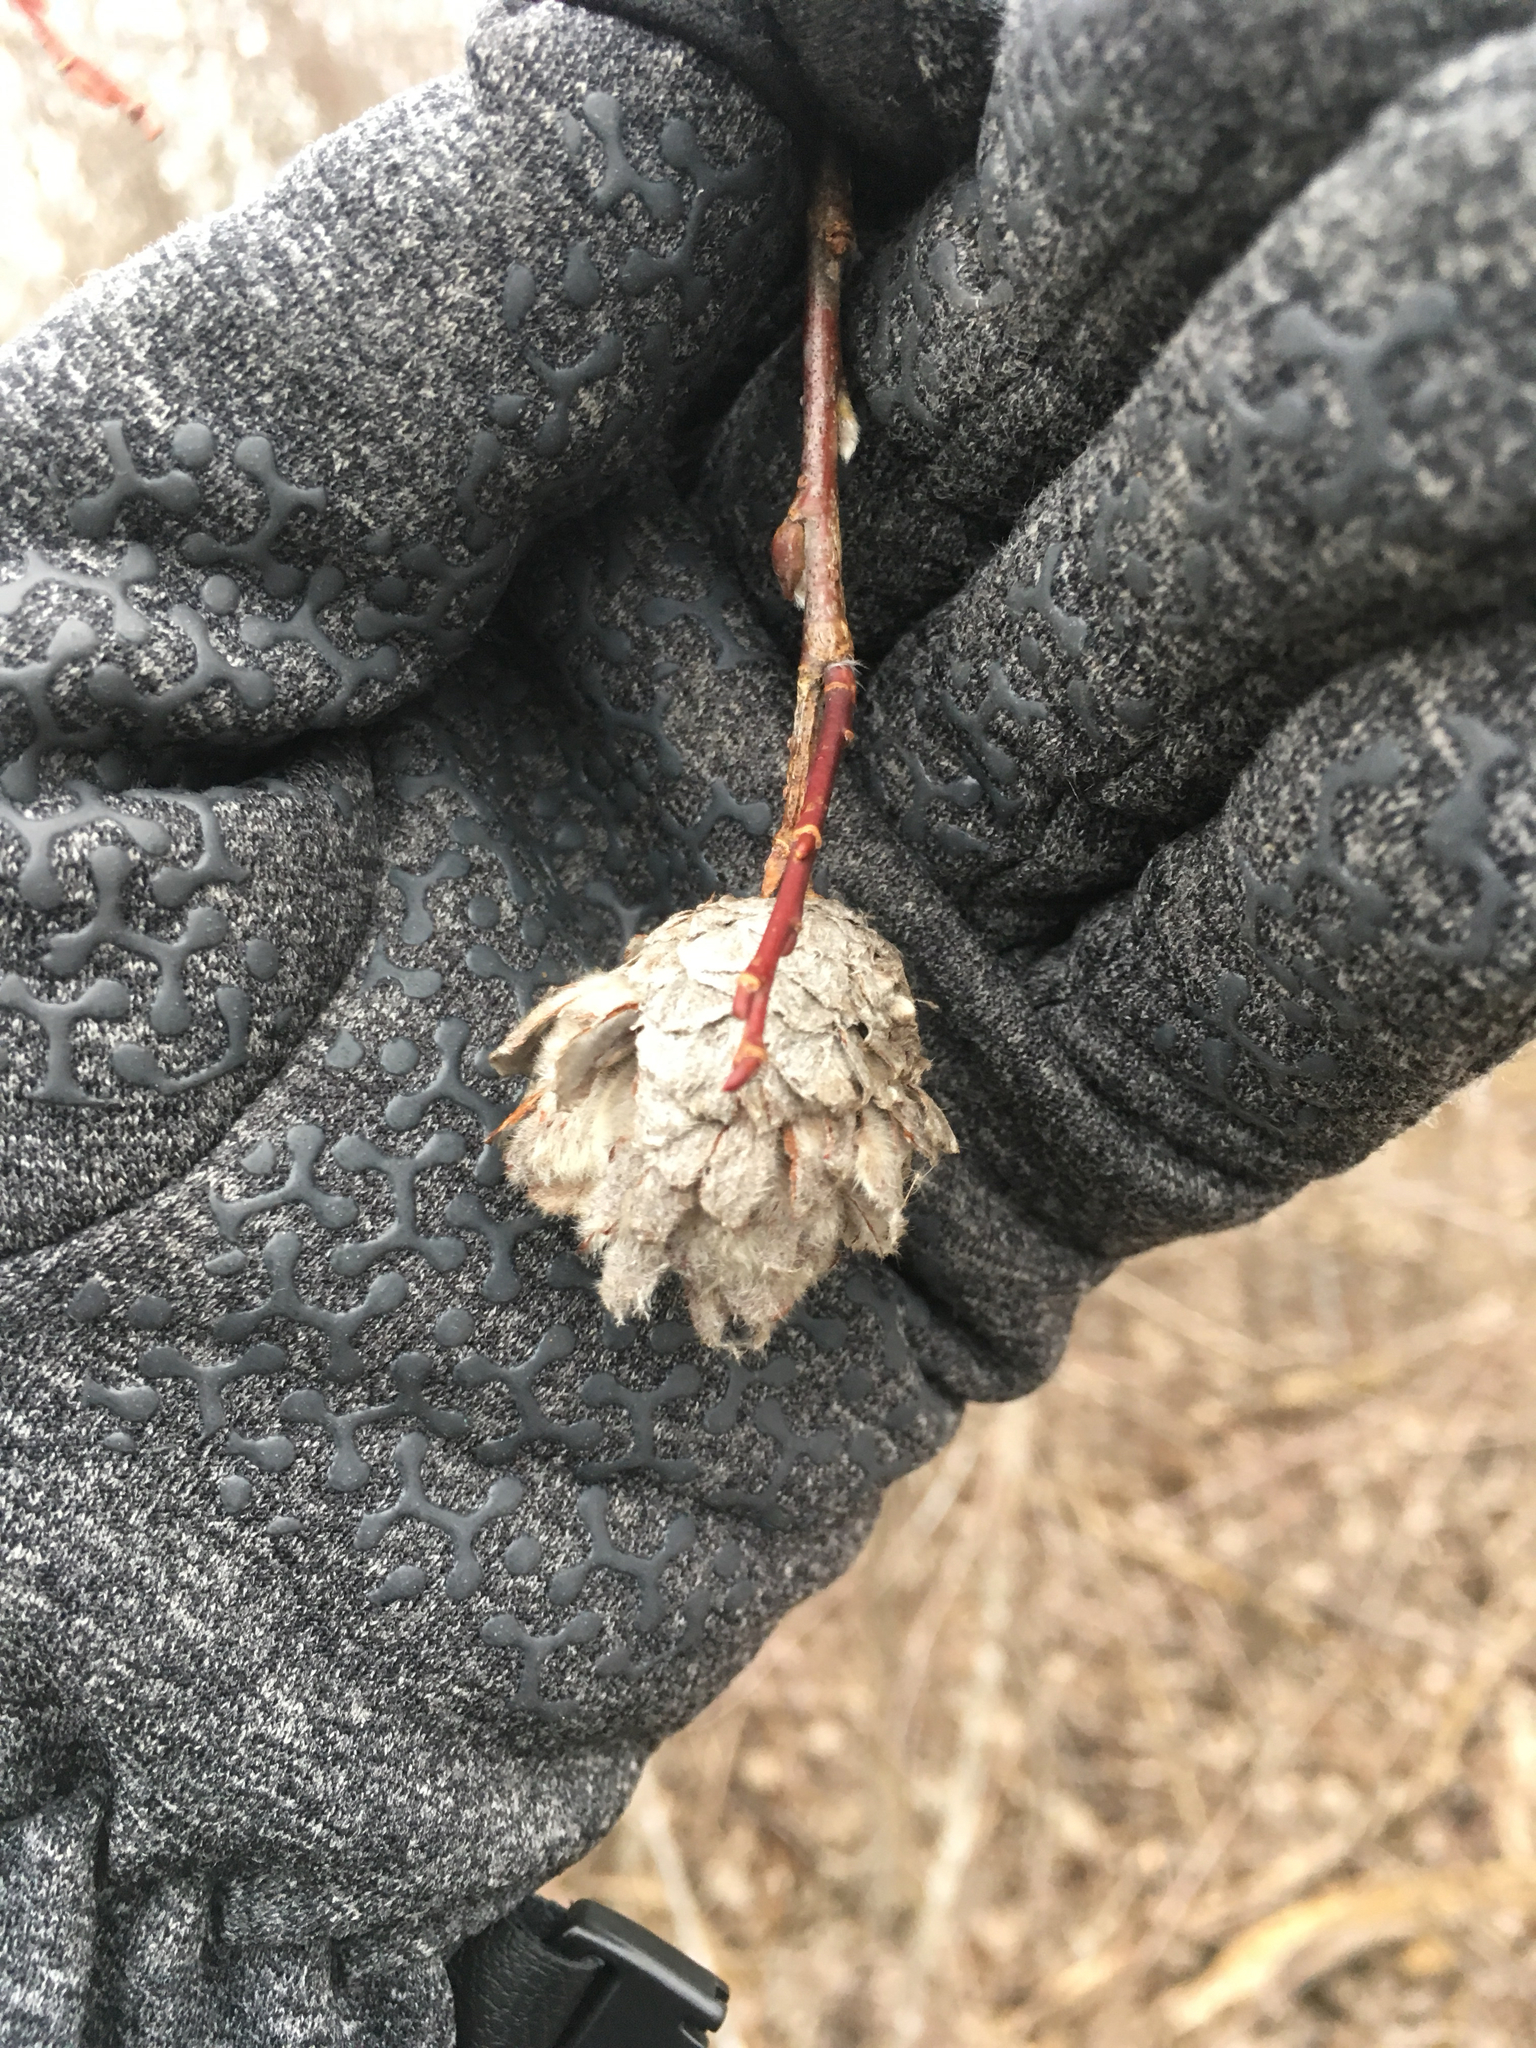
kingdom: Animalia
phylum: Arthropoda
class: Insecta
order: Diptera
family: Cecidomyiidae
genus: Rabdophaga
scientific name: Rabdophaga strobiloides
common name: Willow pinecone gall midge
